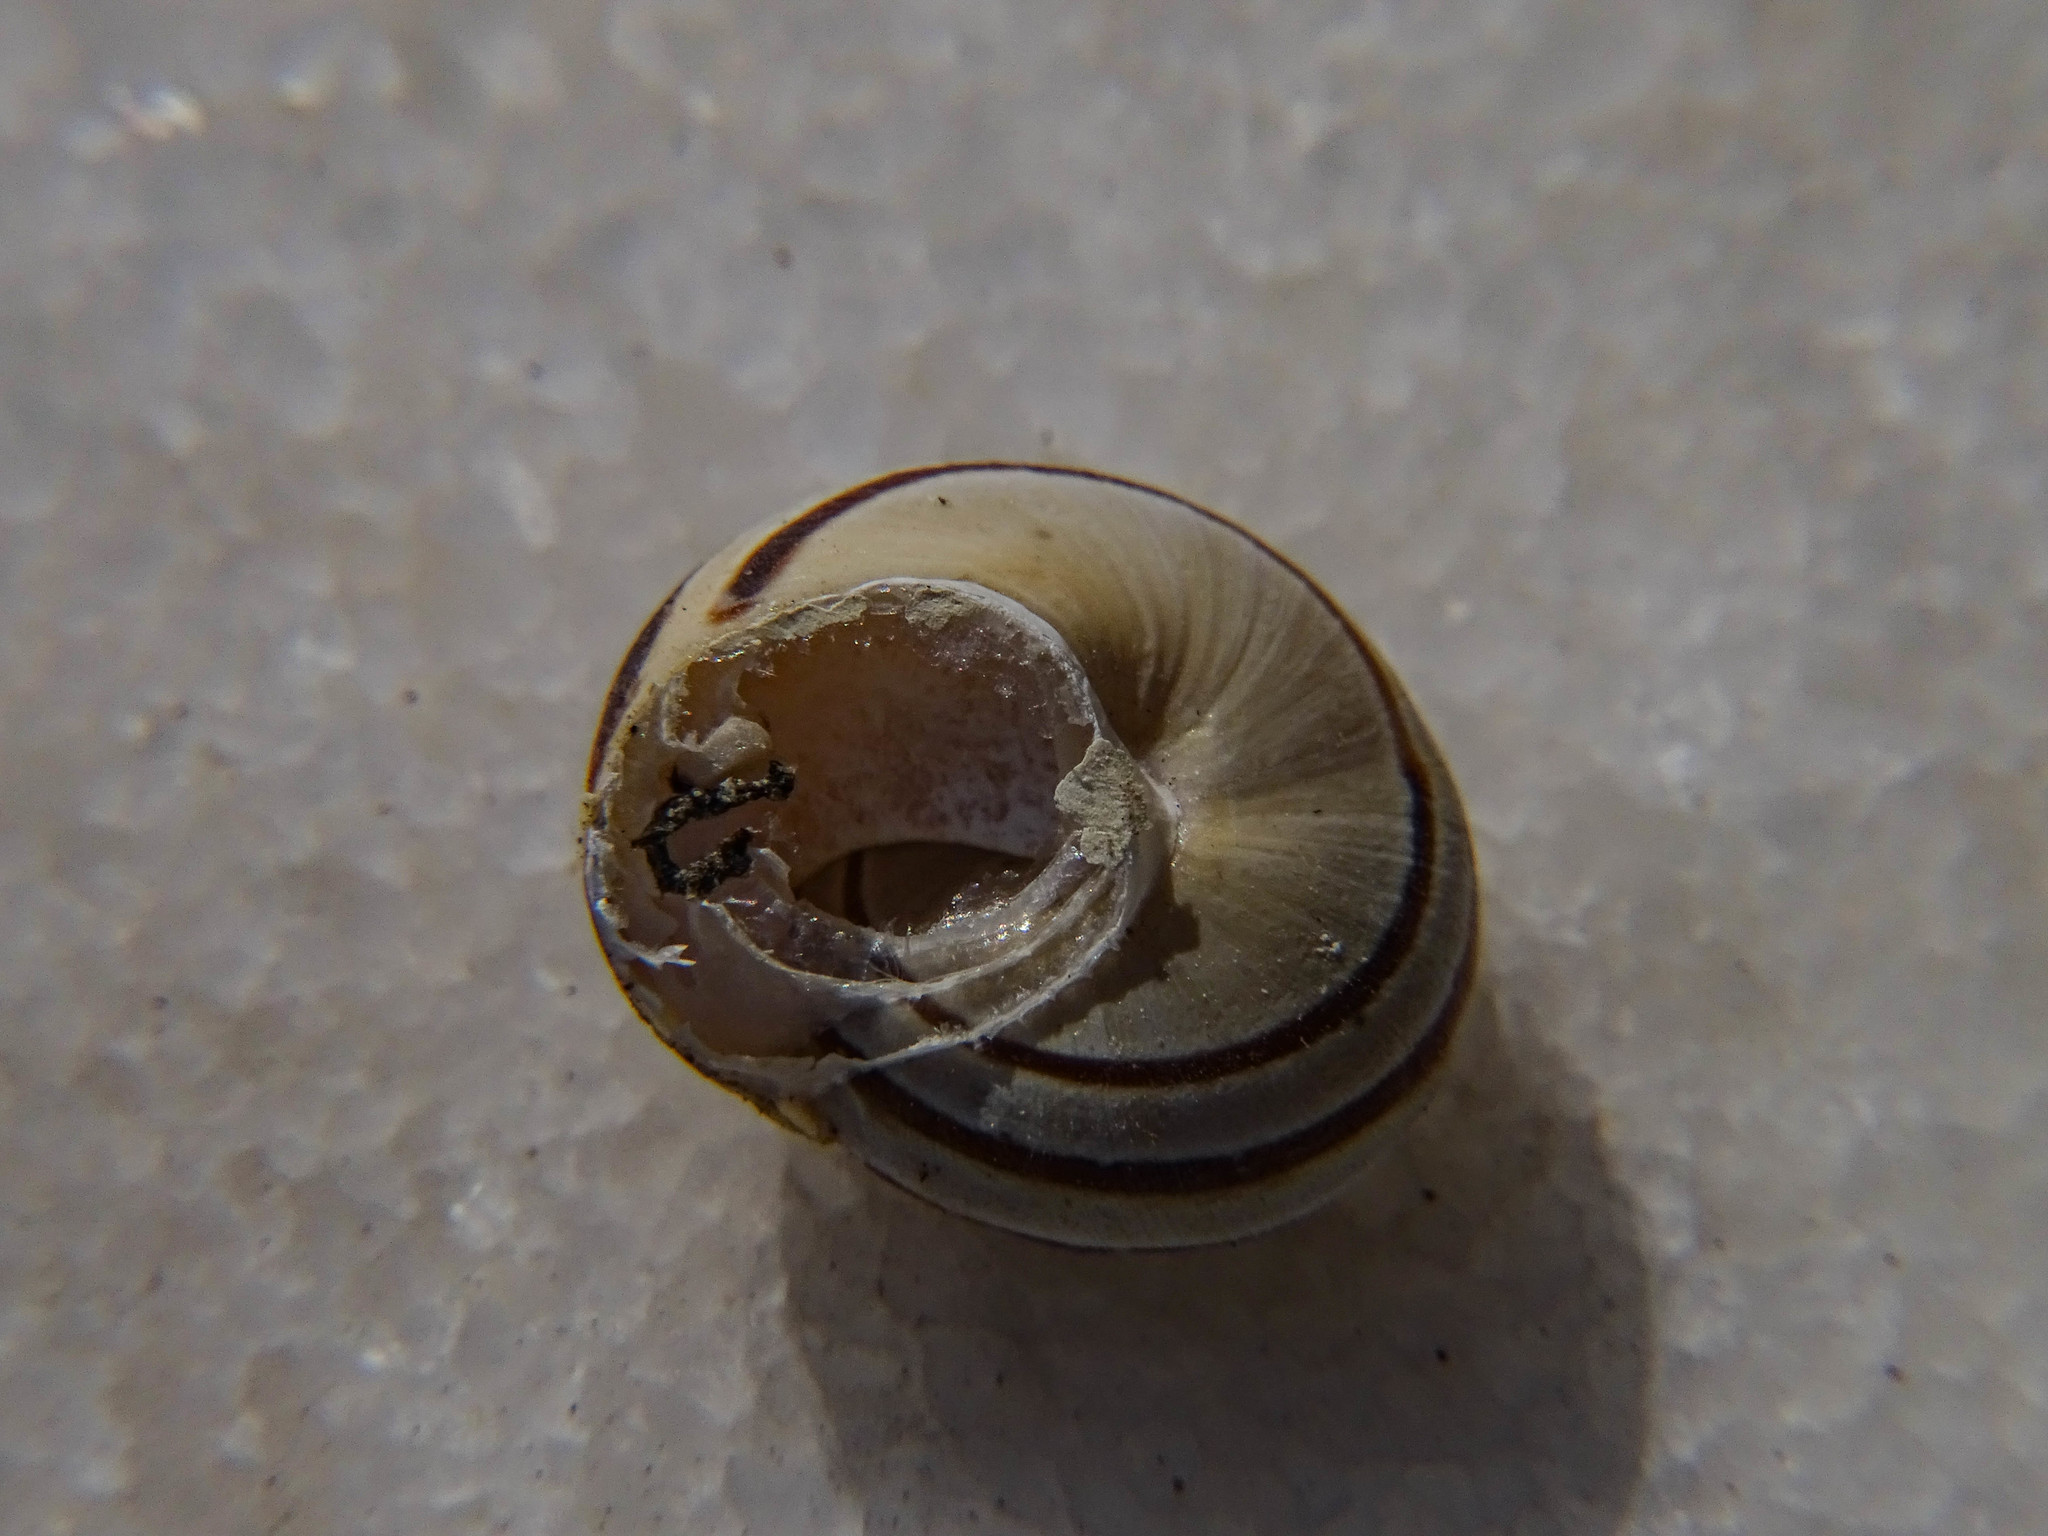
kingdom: Animalia
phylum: Mollusca
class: Gastropoda
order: Stylommatophora
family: Helicidae
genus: Eobania
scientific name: Eobania vermiculata
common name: Chocolateband snail
